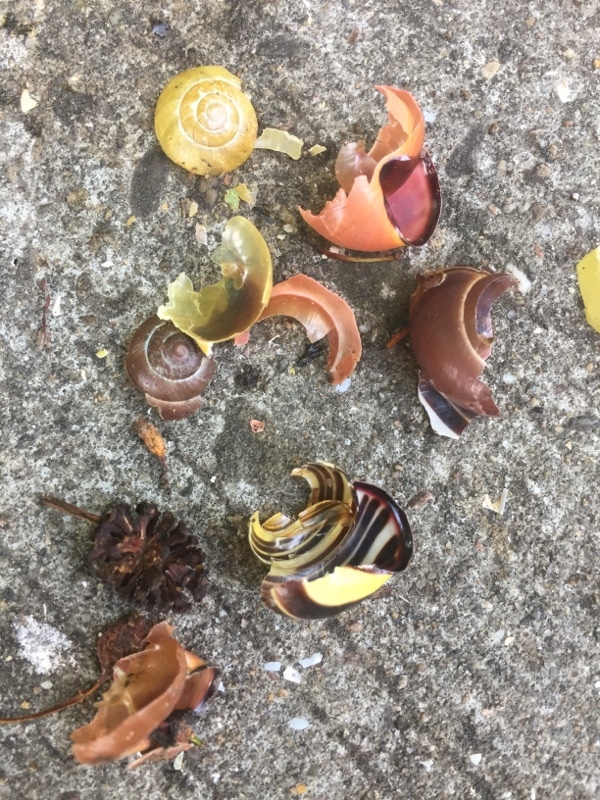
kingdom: Animalia
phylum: Chordata
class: Aves
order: Passeriformes
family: Turdidae
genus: Turdus
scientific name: Turdus philomelos
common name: Song thrush
